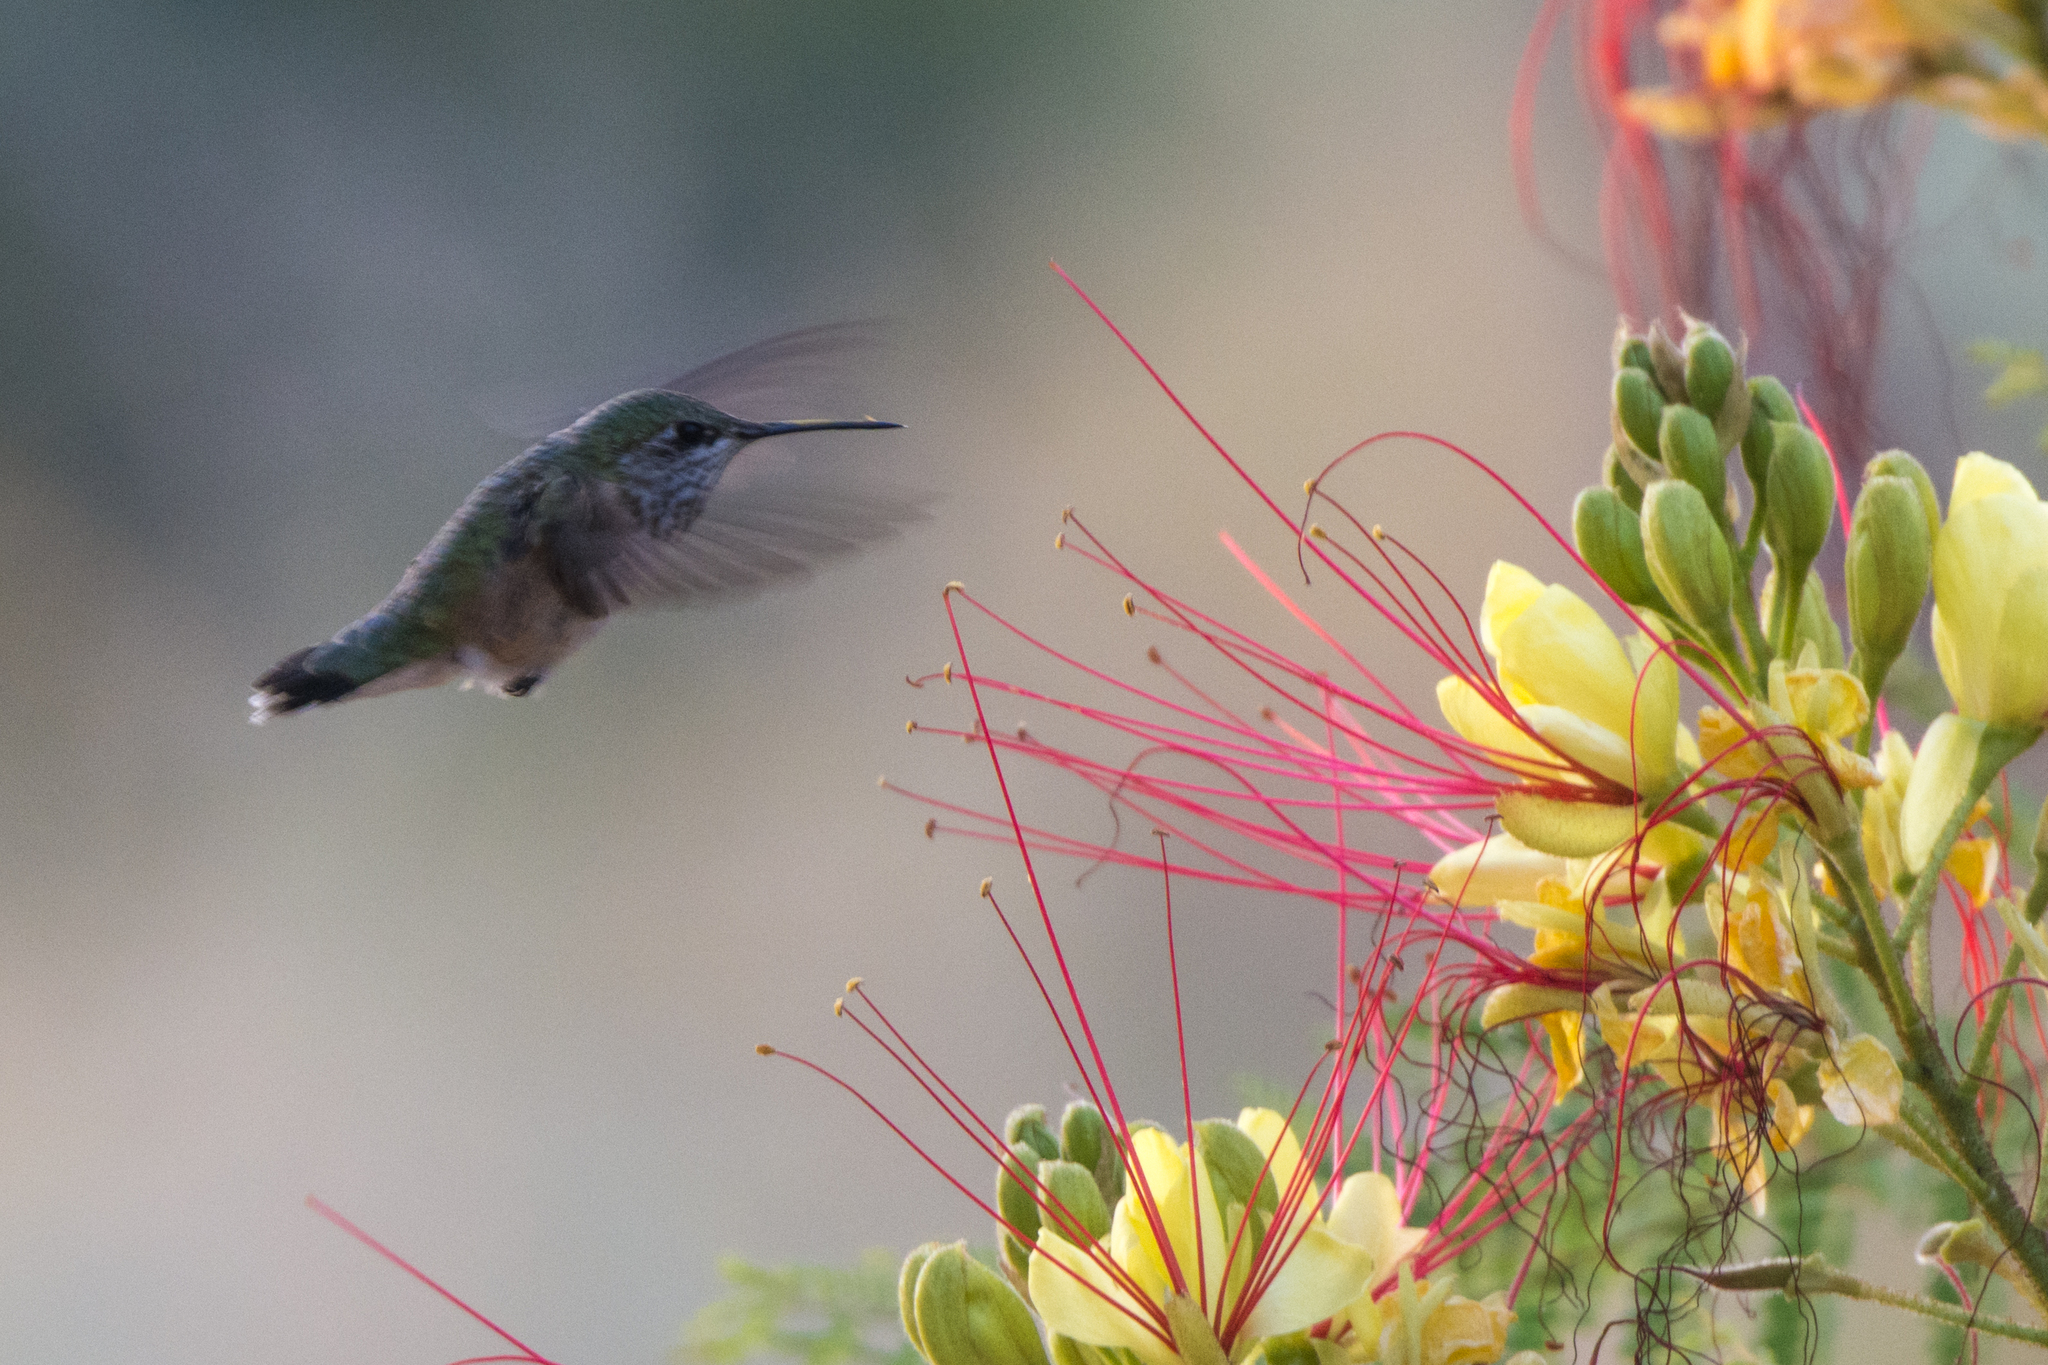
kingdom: Animalia
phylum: Chordata
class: Aves
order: Apodiformes
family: Trochilidae
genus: Selasphorus
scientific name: Selasphorus calliope
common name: Calliope hummingbird
